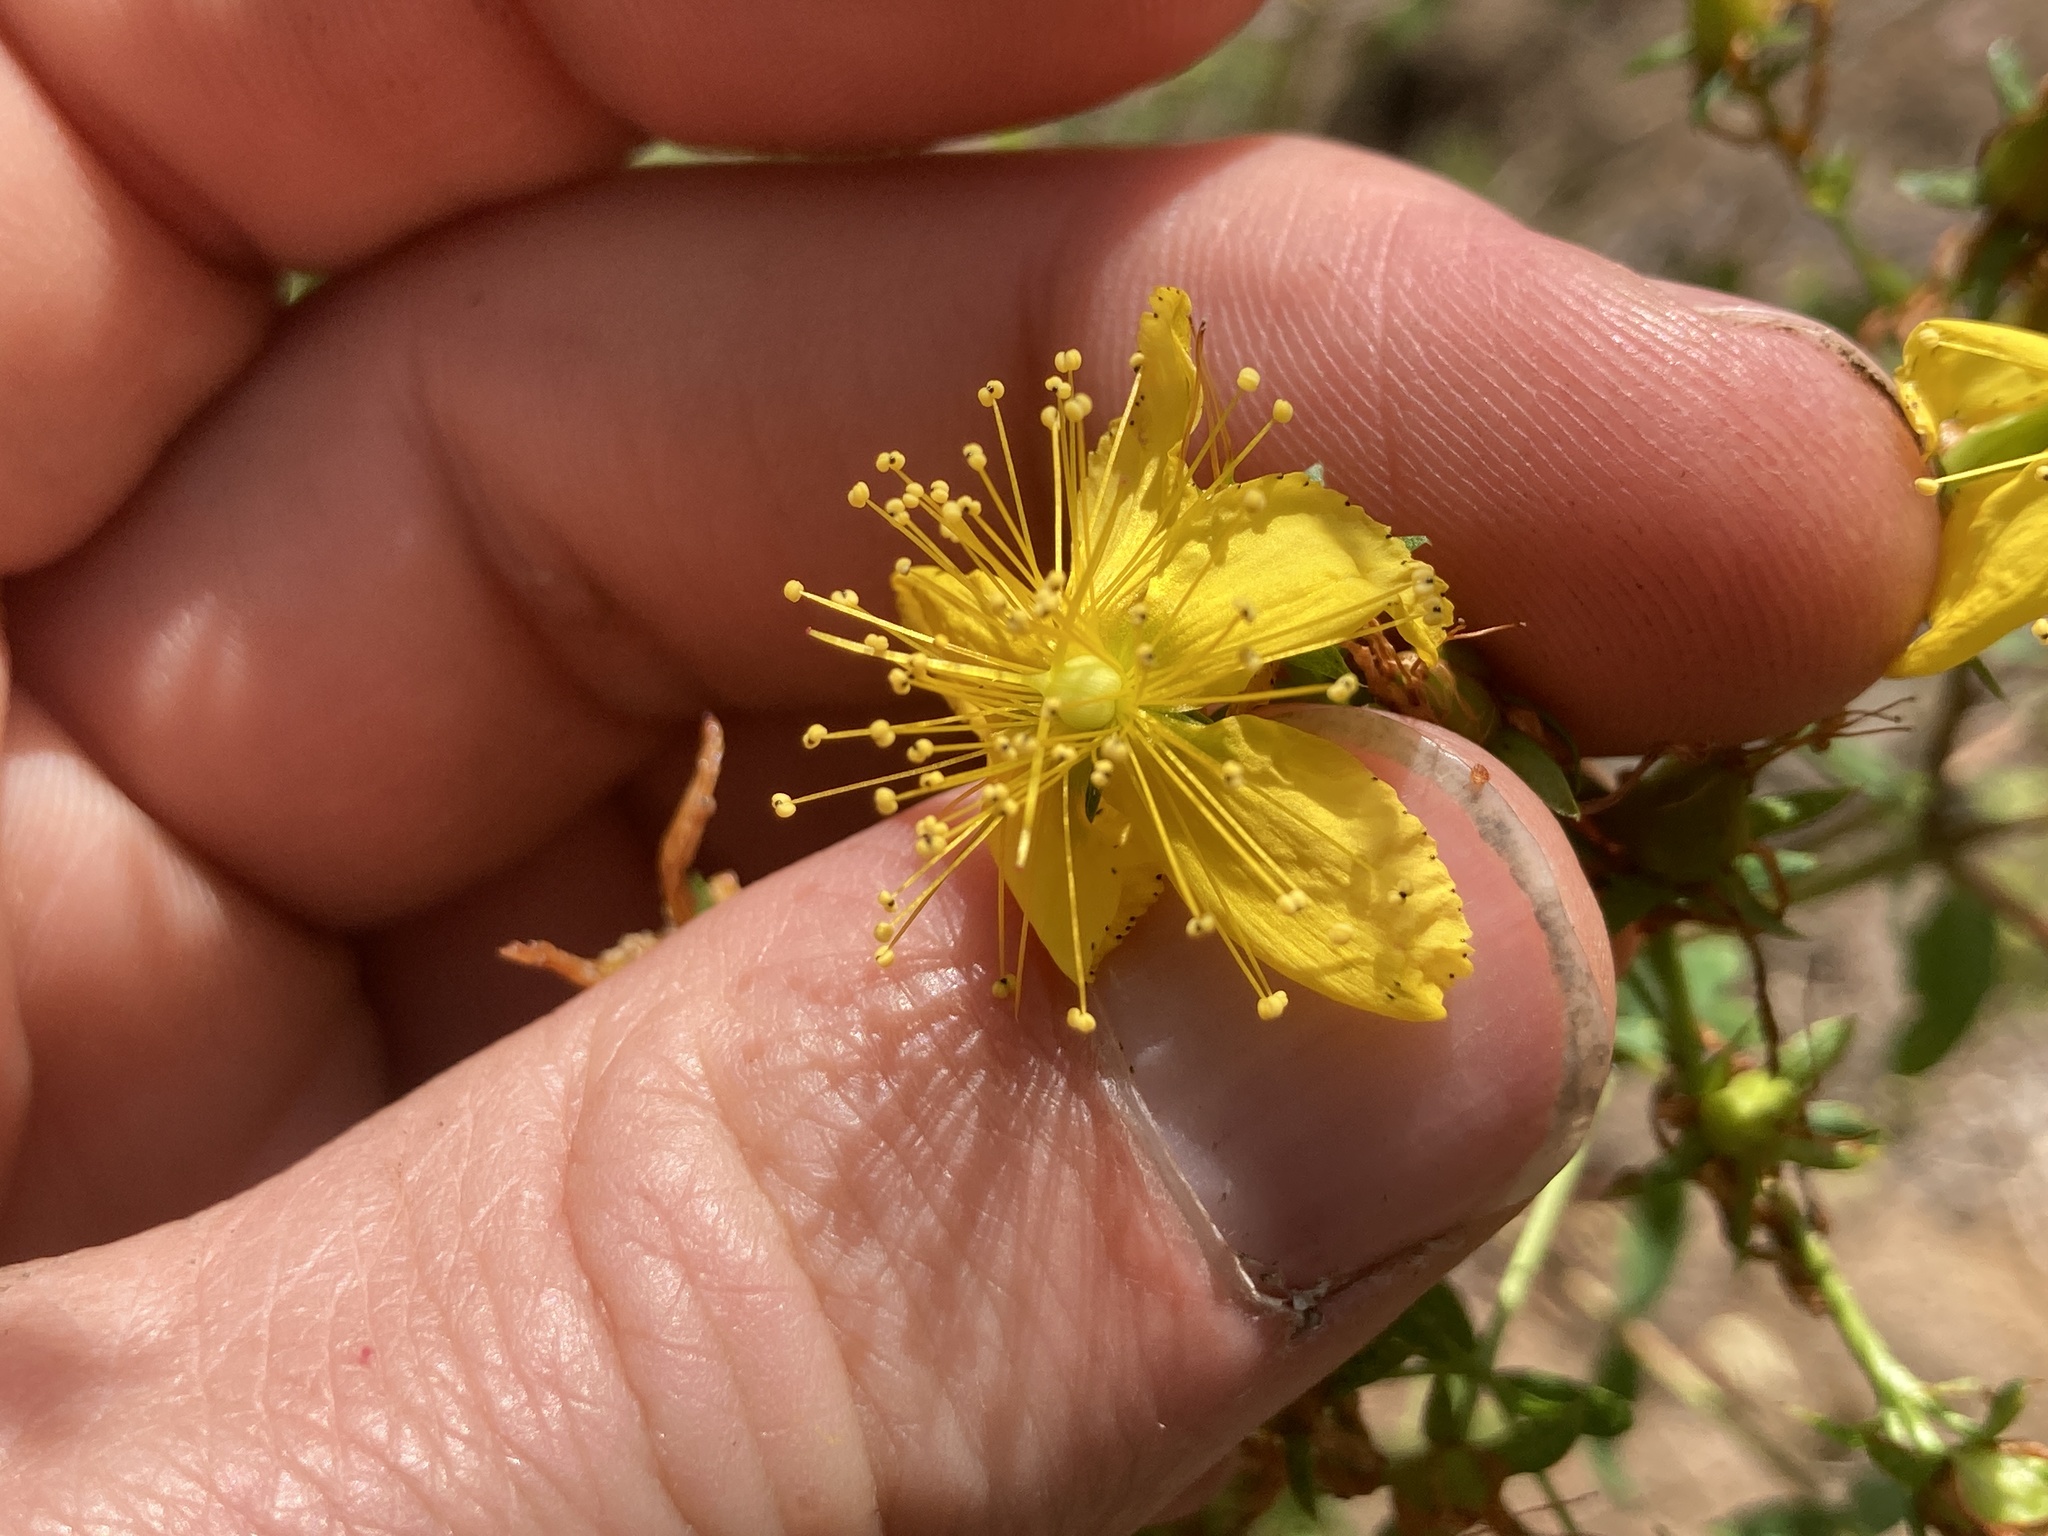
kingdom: Plantae
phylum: Tracheophyta
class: Magnoliopsida
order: Malpighiales
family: Hypericaceae
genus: Hypericum
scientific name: Hypericum perforatum
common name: Common st. johnswort
